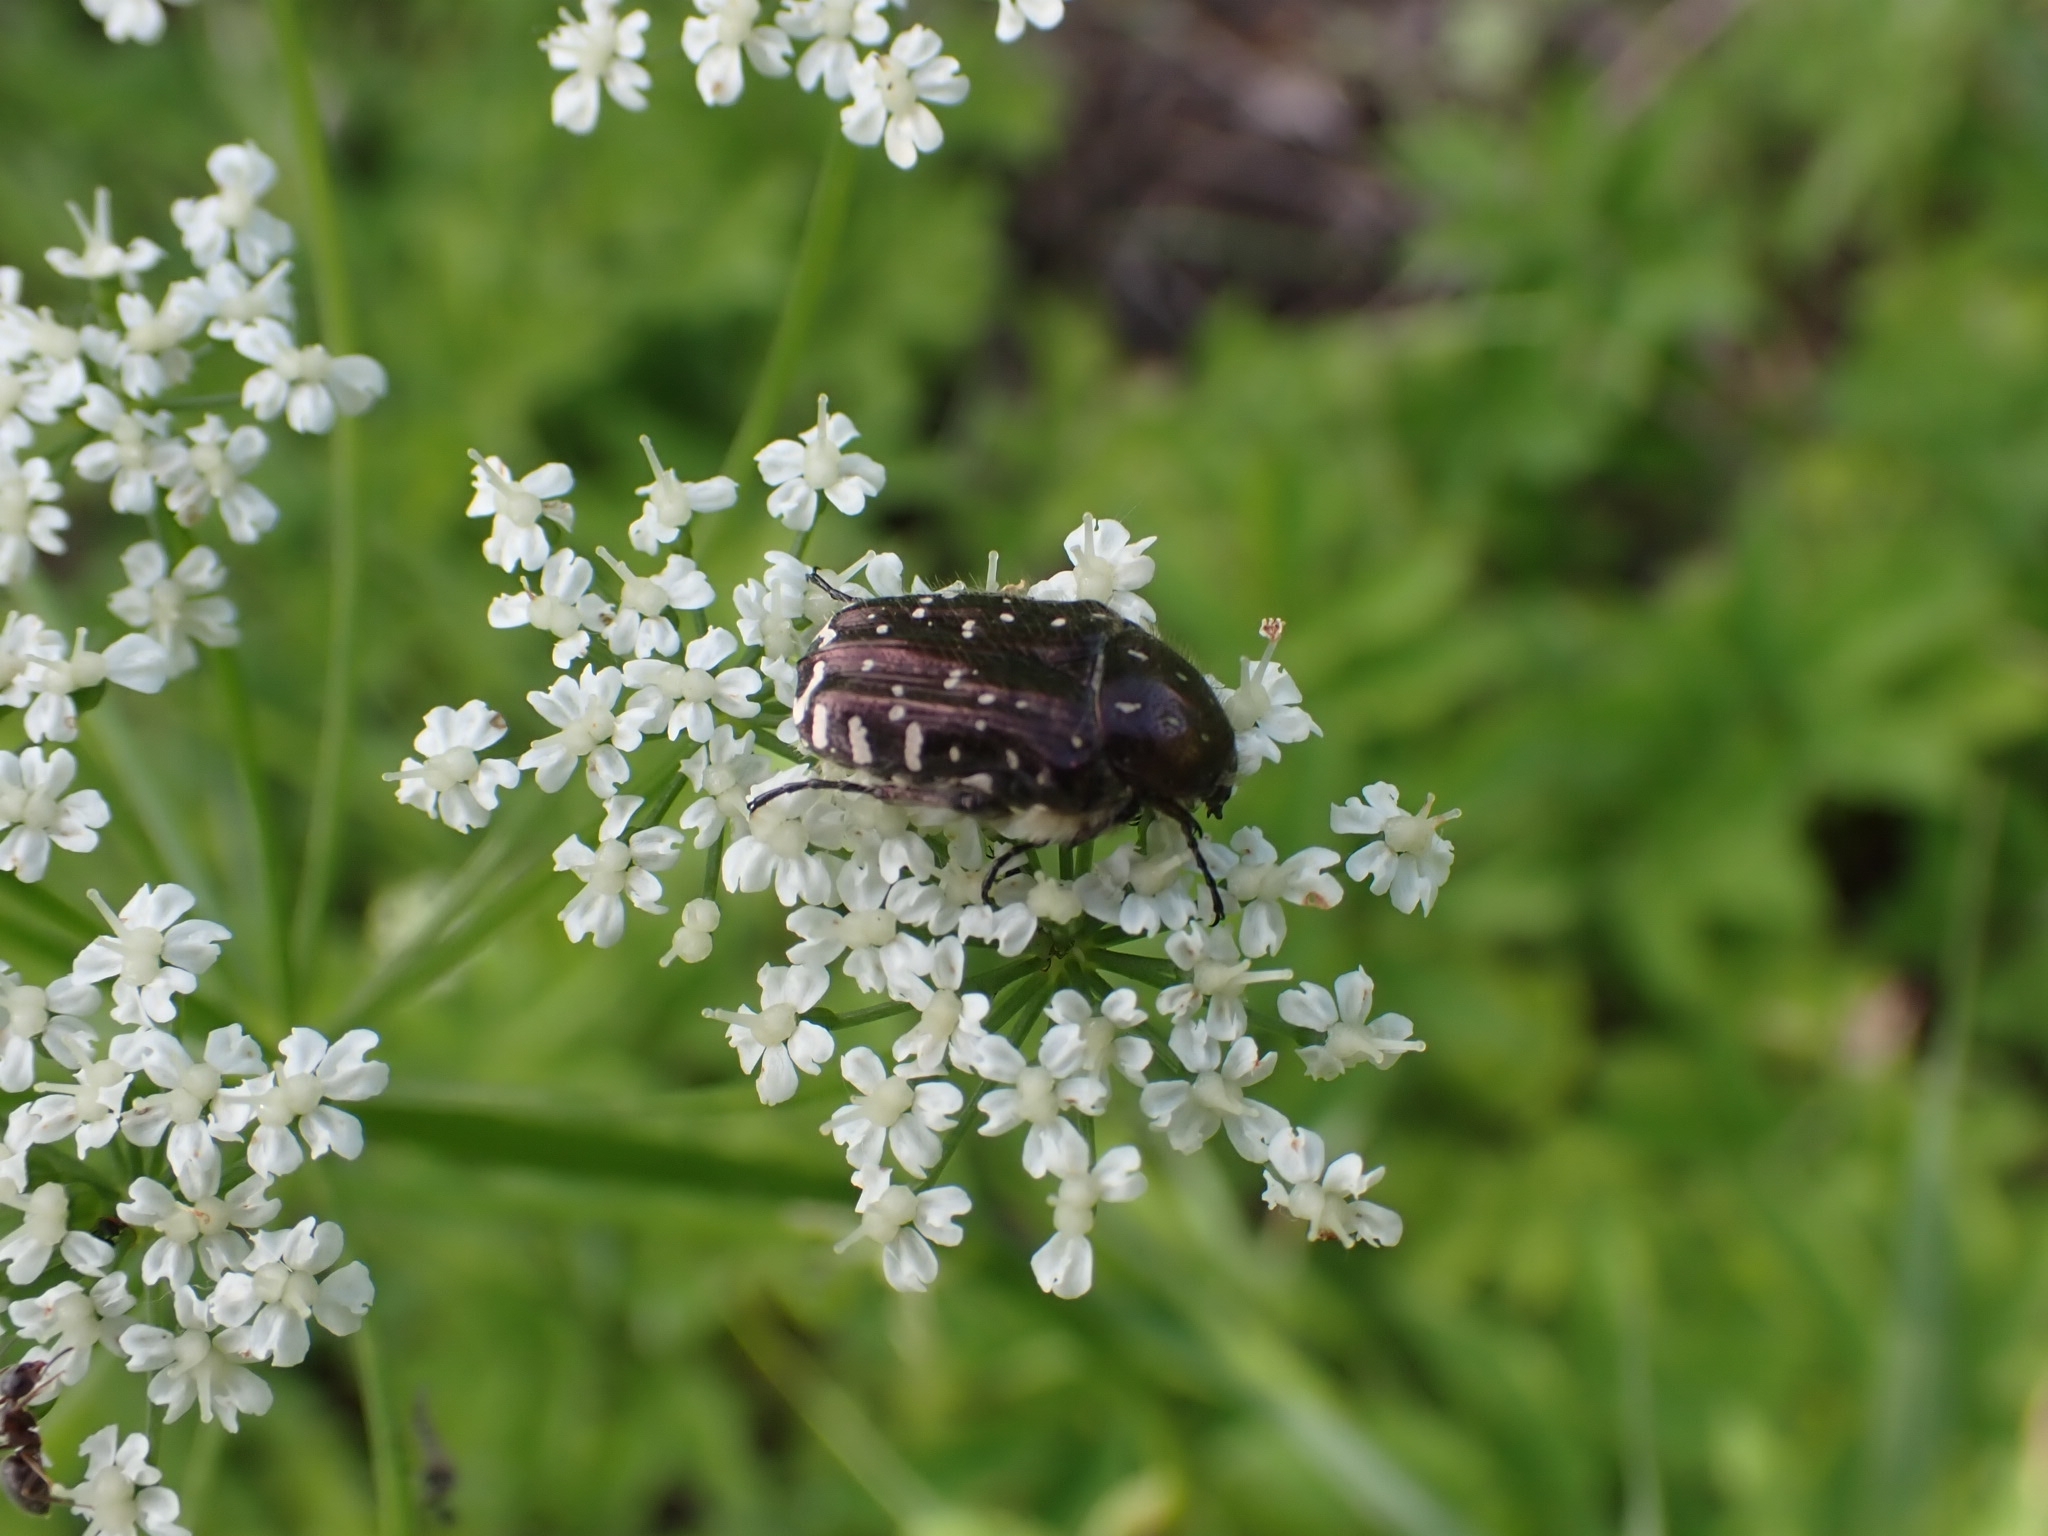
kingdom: Animalia
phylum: Arthropoda
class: Insecta
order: Coleoptera
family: Scarabaeidae
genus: Oxythyrea
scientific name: Oxythyrea funesta
